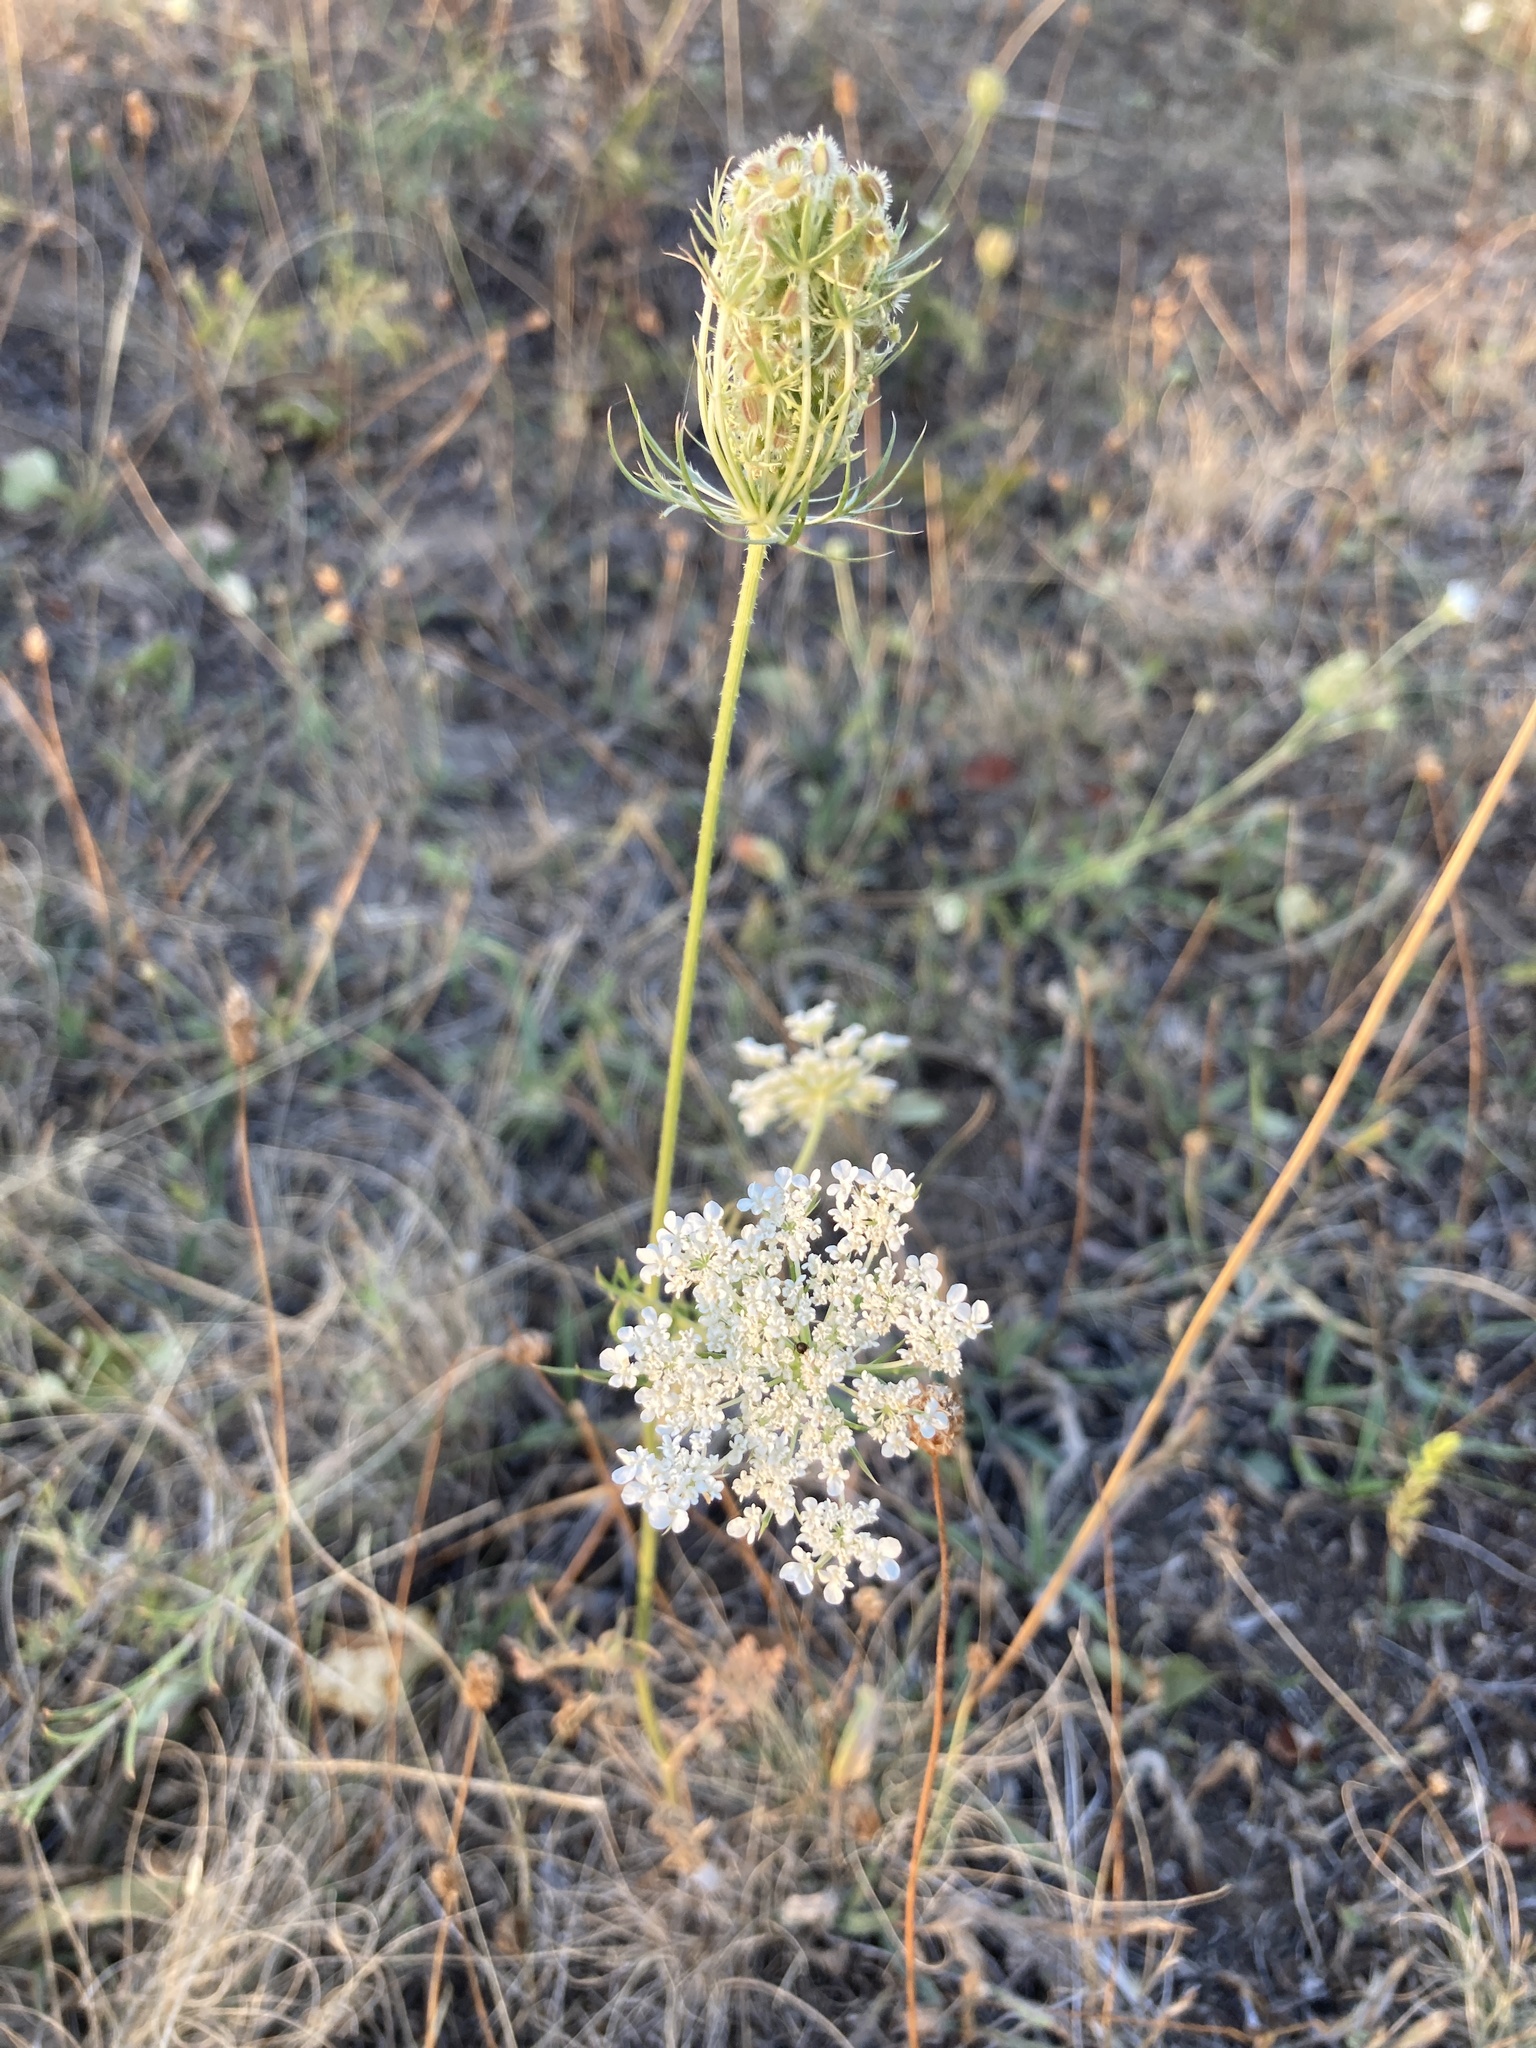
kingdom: Plantae
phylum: Tracheophyta
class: Magnoliopsida
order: Apiales
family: Apiaceae
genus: Daucus
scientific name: Daucus carota
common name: Wild carrot
